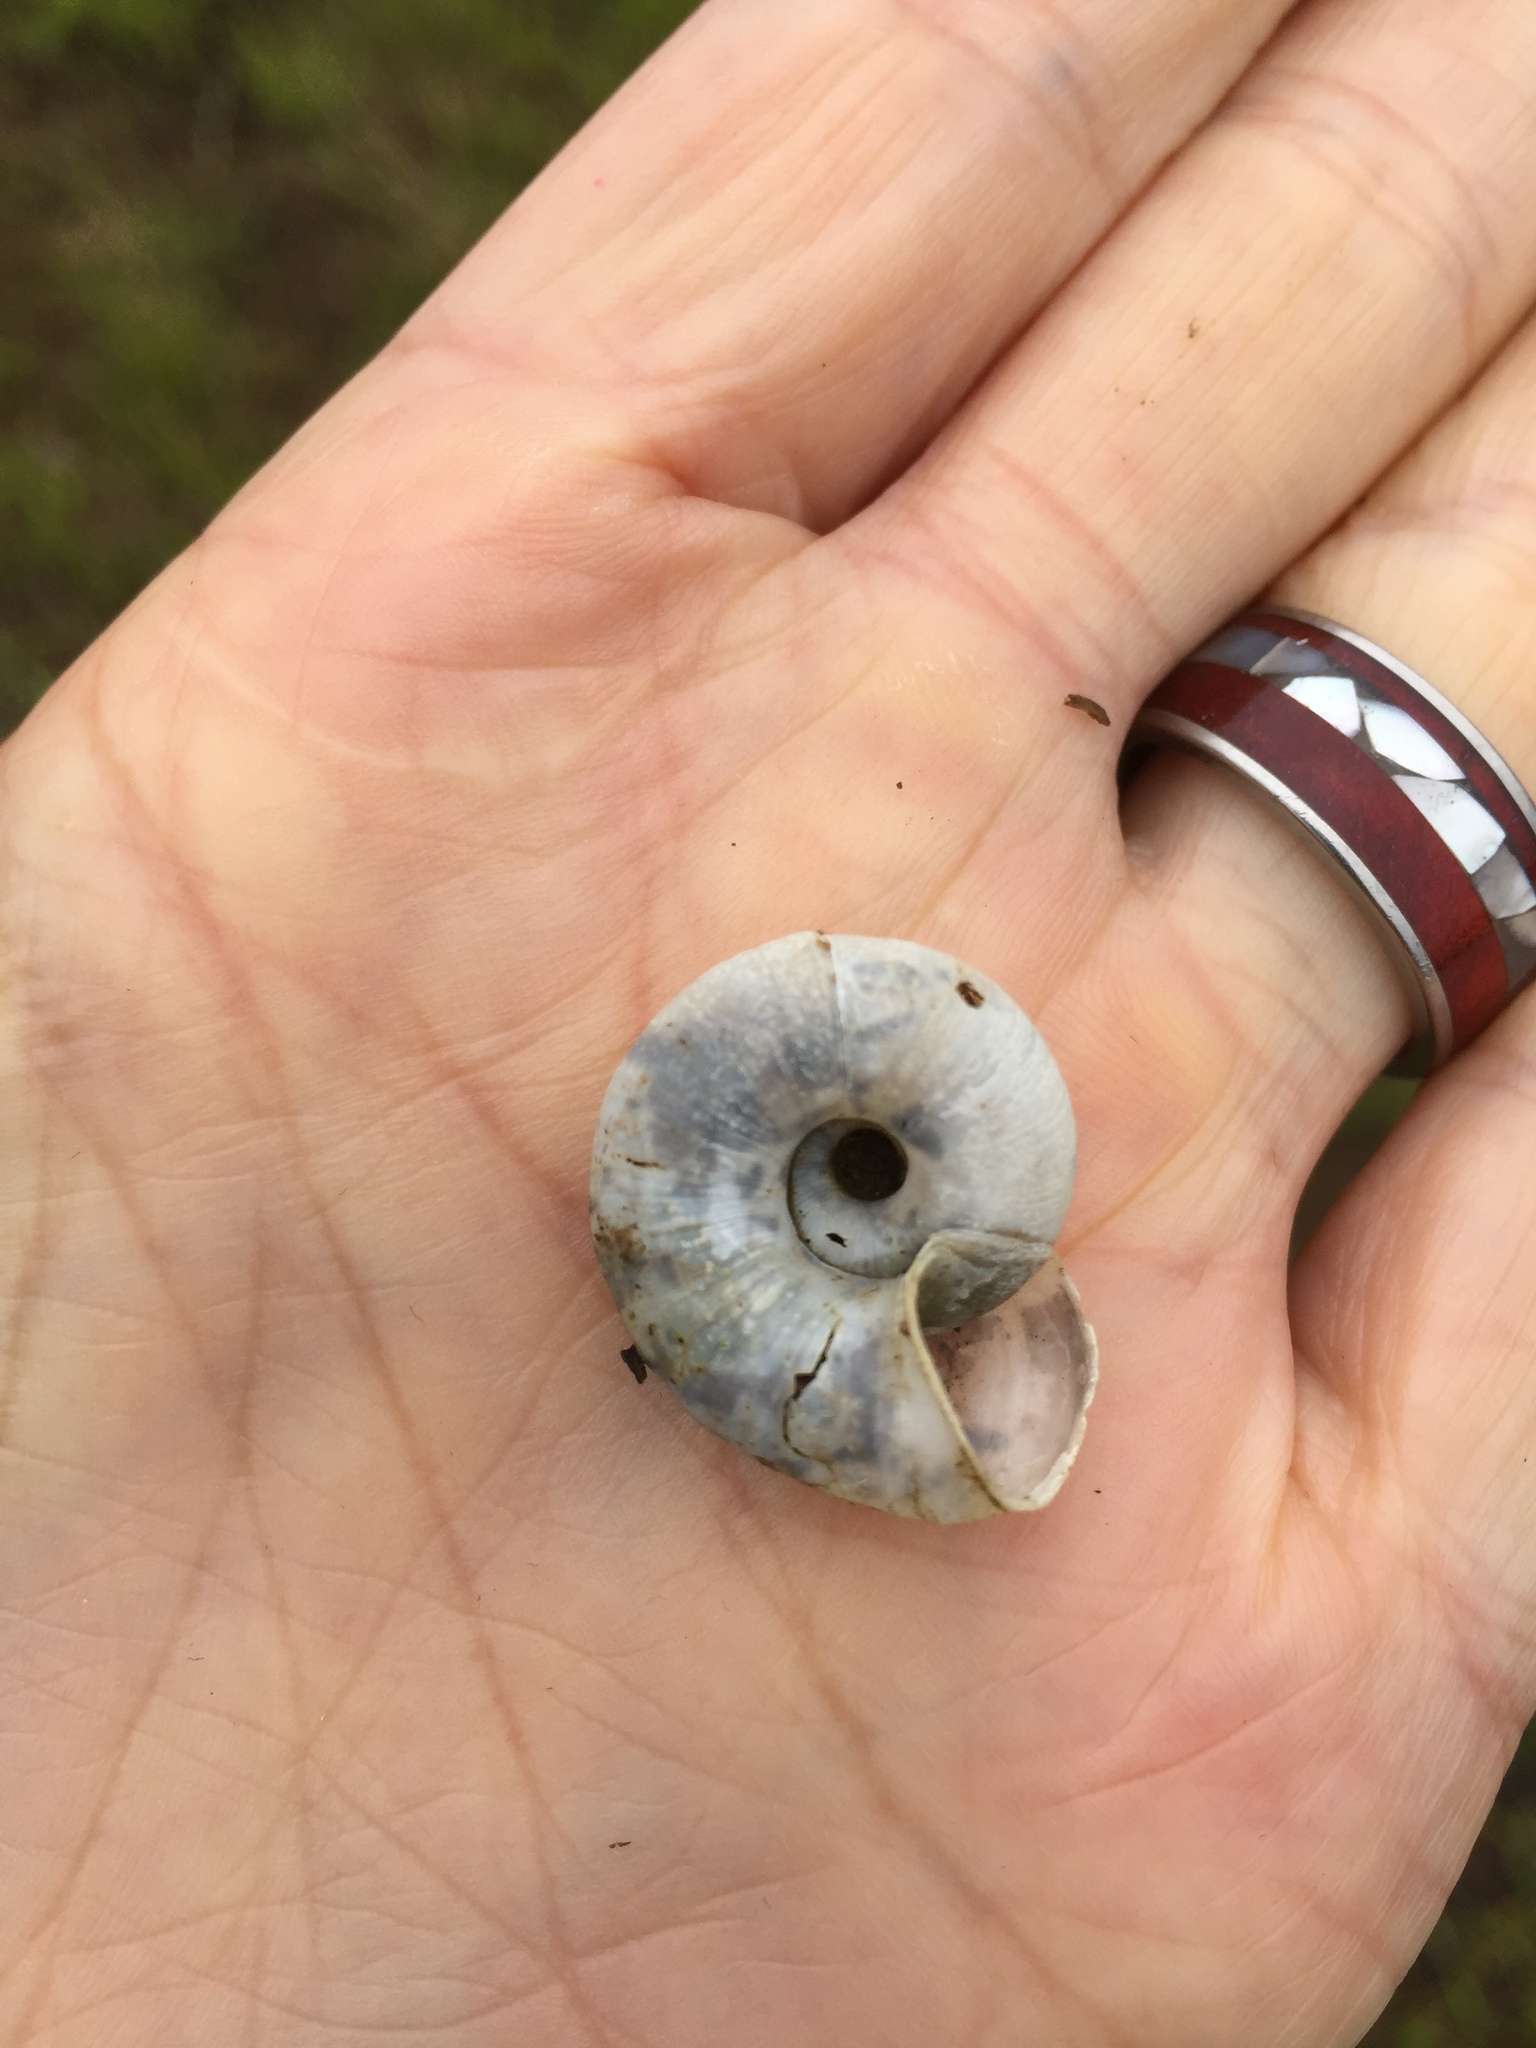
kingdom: Animalia
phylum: Mollusca
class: Gastropoda
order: Stylommatophora
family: Haplotrematidae
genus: Haplotrema
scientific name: Haplotrema minimum
